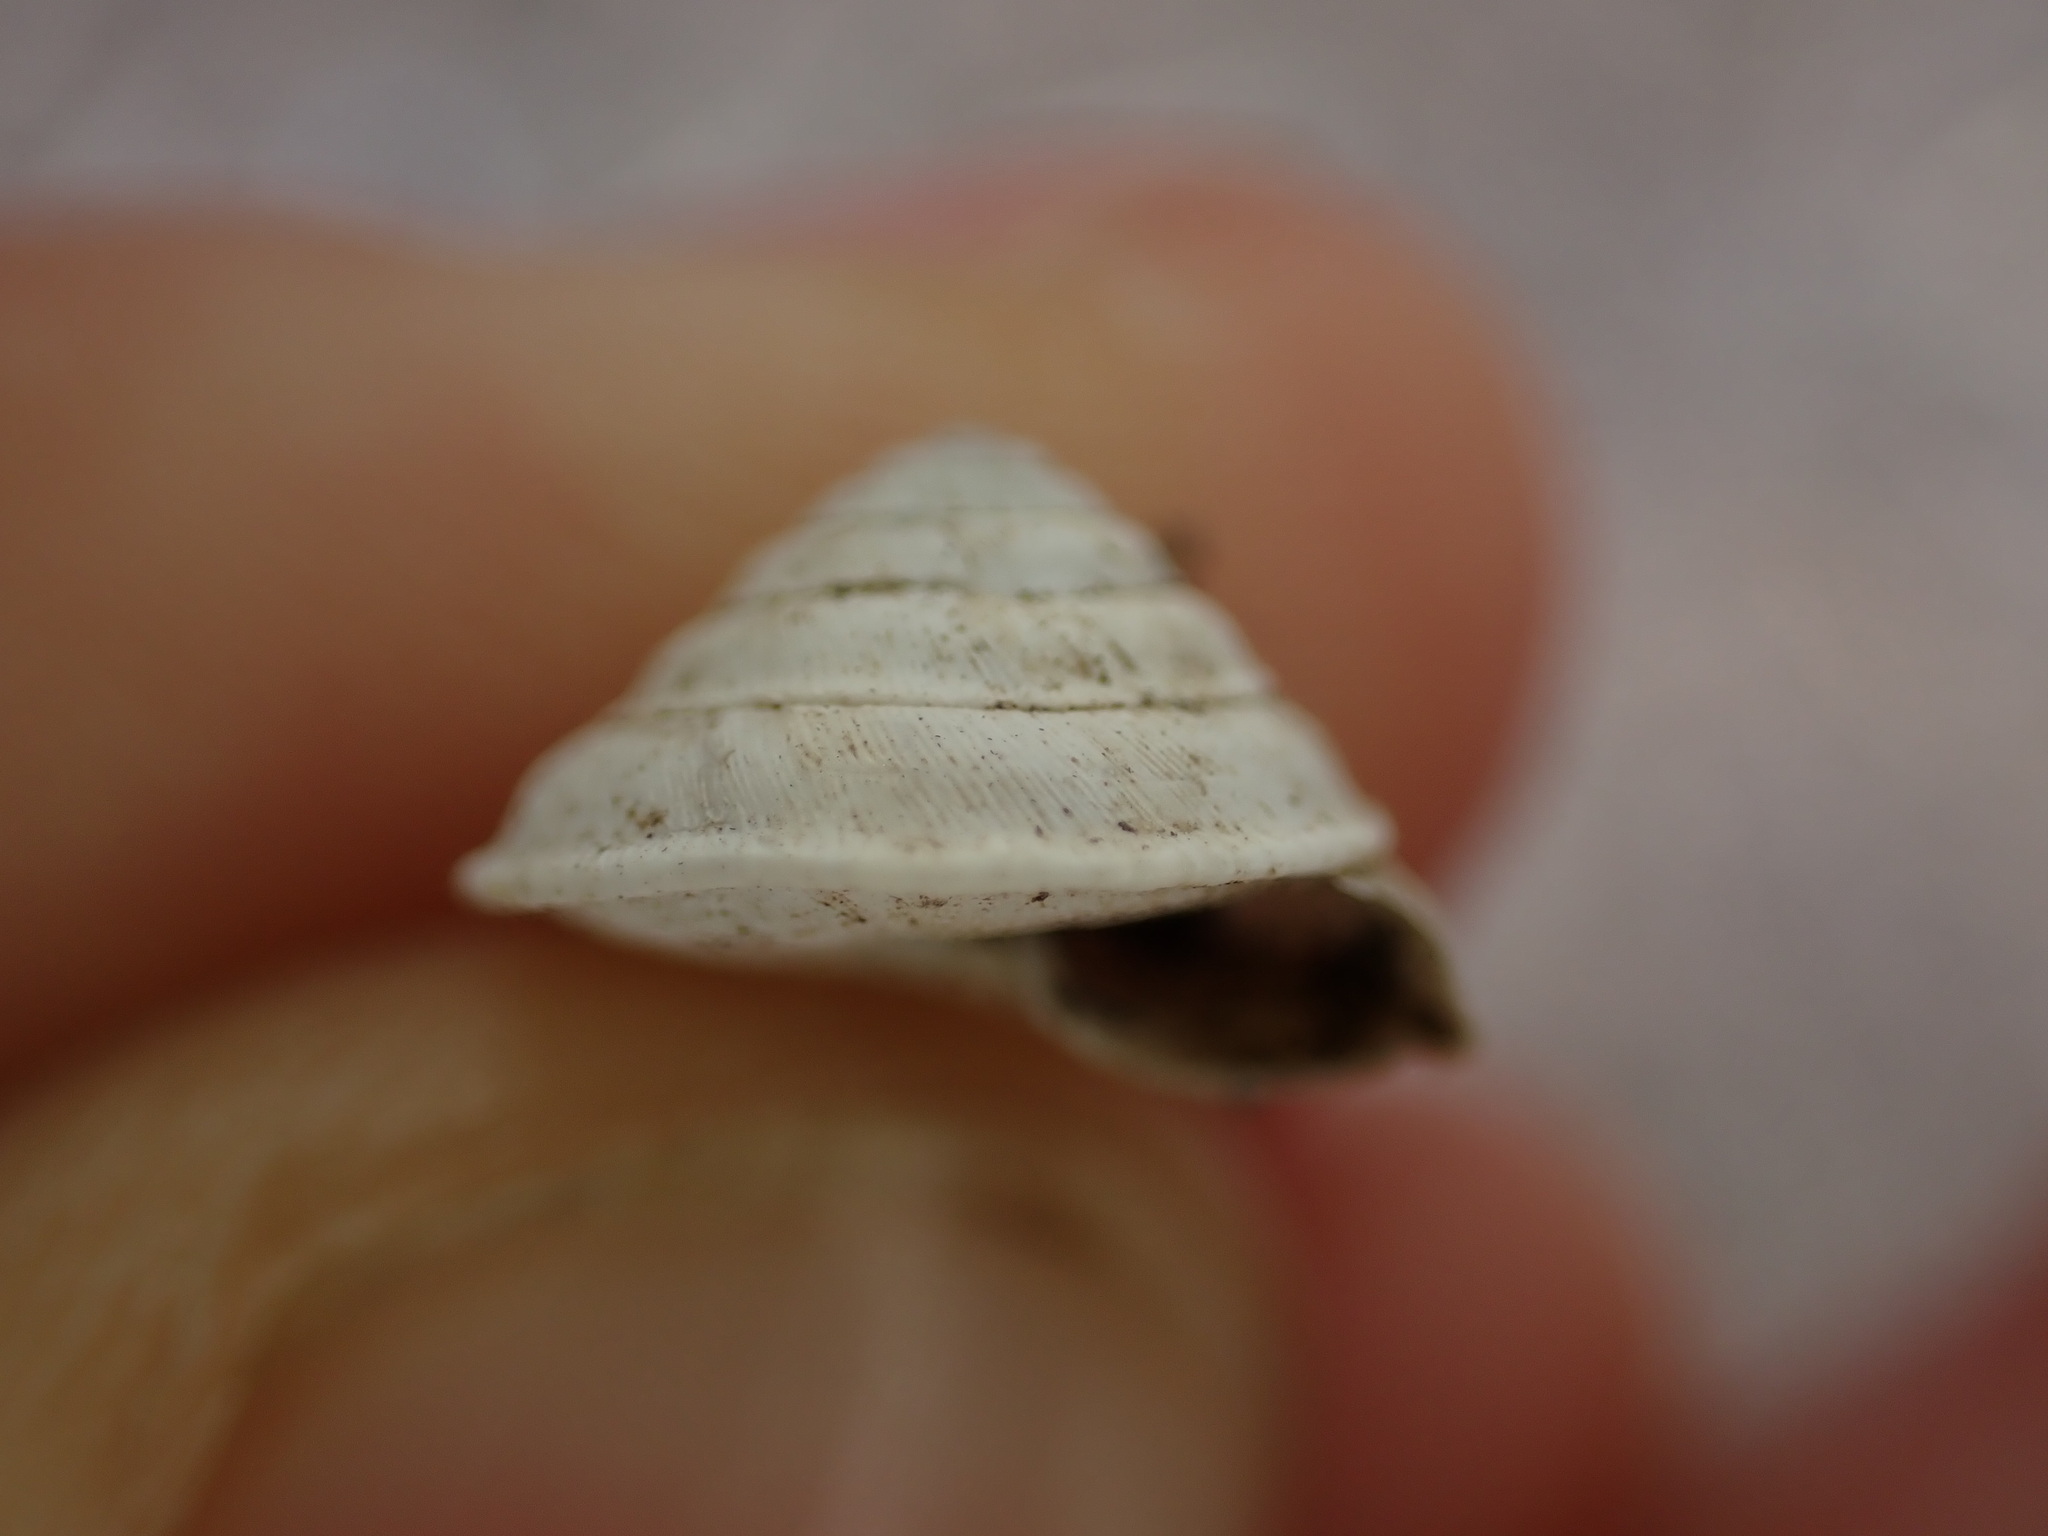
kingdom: Animalia
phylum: Mollusca
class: Gastropoda
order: Stylommatophora
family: Geomitridae
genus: Trochoidea
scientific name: Trochoidea elegans
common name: Elegant helicellid
